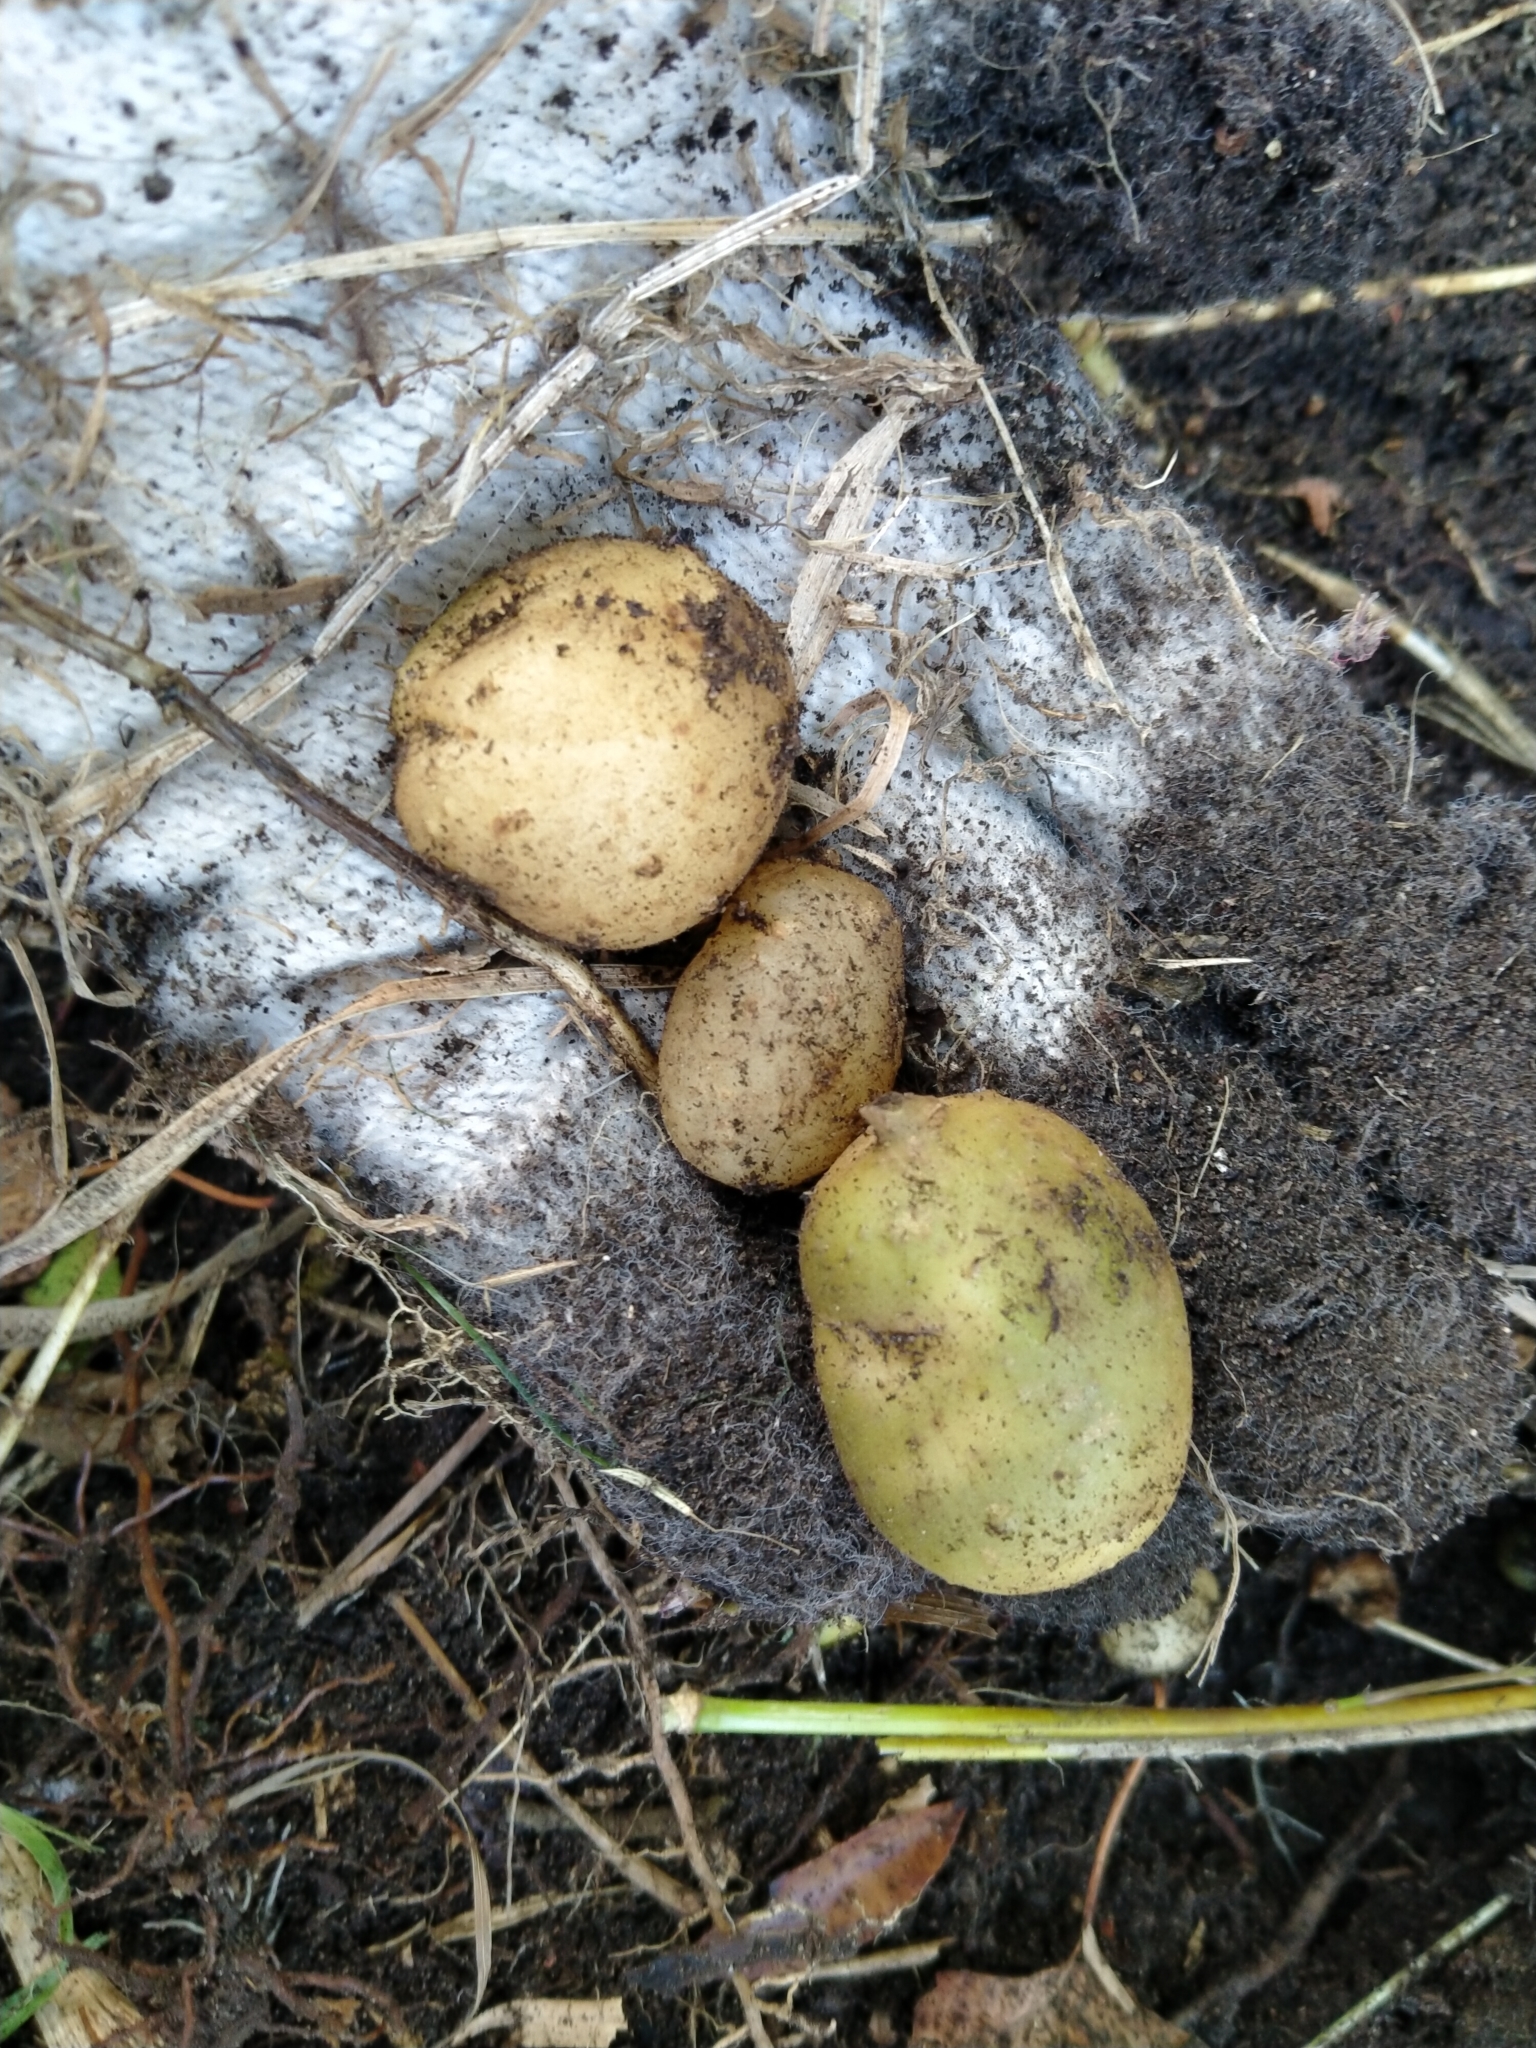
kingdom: Plantae
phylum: Tracheophyta
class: Magnoliopsida
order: Solanales
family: Solanaceae
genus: Solanum
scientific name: Solanum tuberosum
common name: Potato
